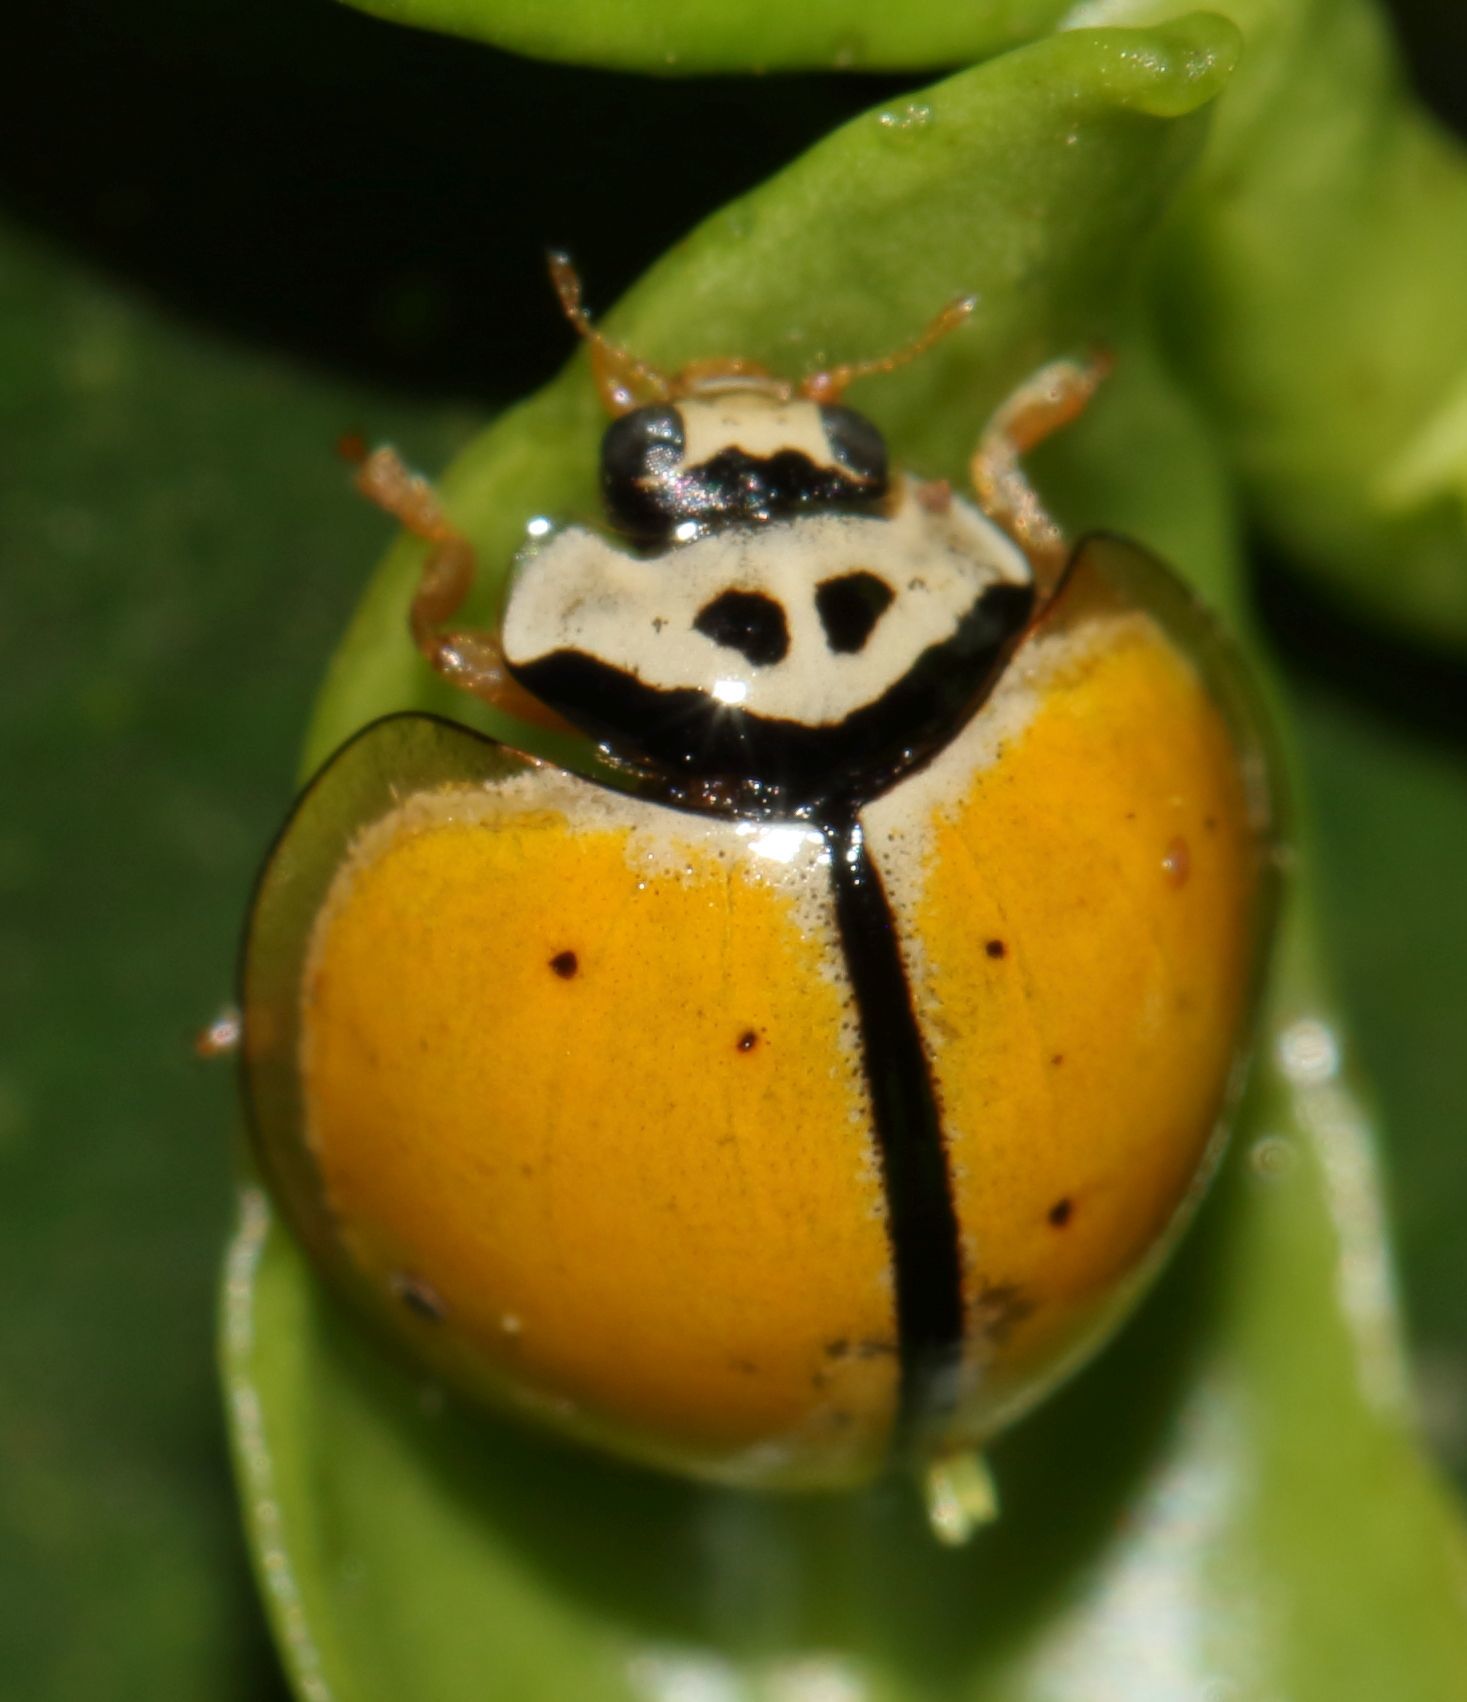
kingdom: Animalia
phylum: Arthropoda
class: Insecta
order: Coleoptera
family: Coccinellidae
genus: Oenopia
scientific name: Oenopia
